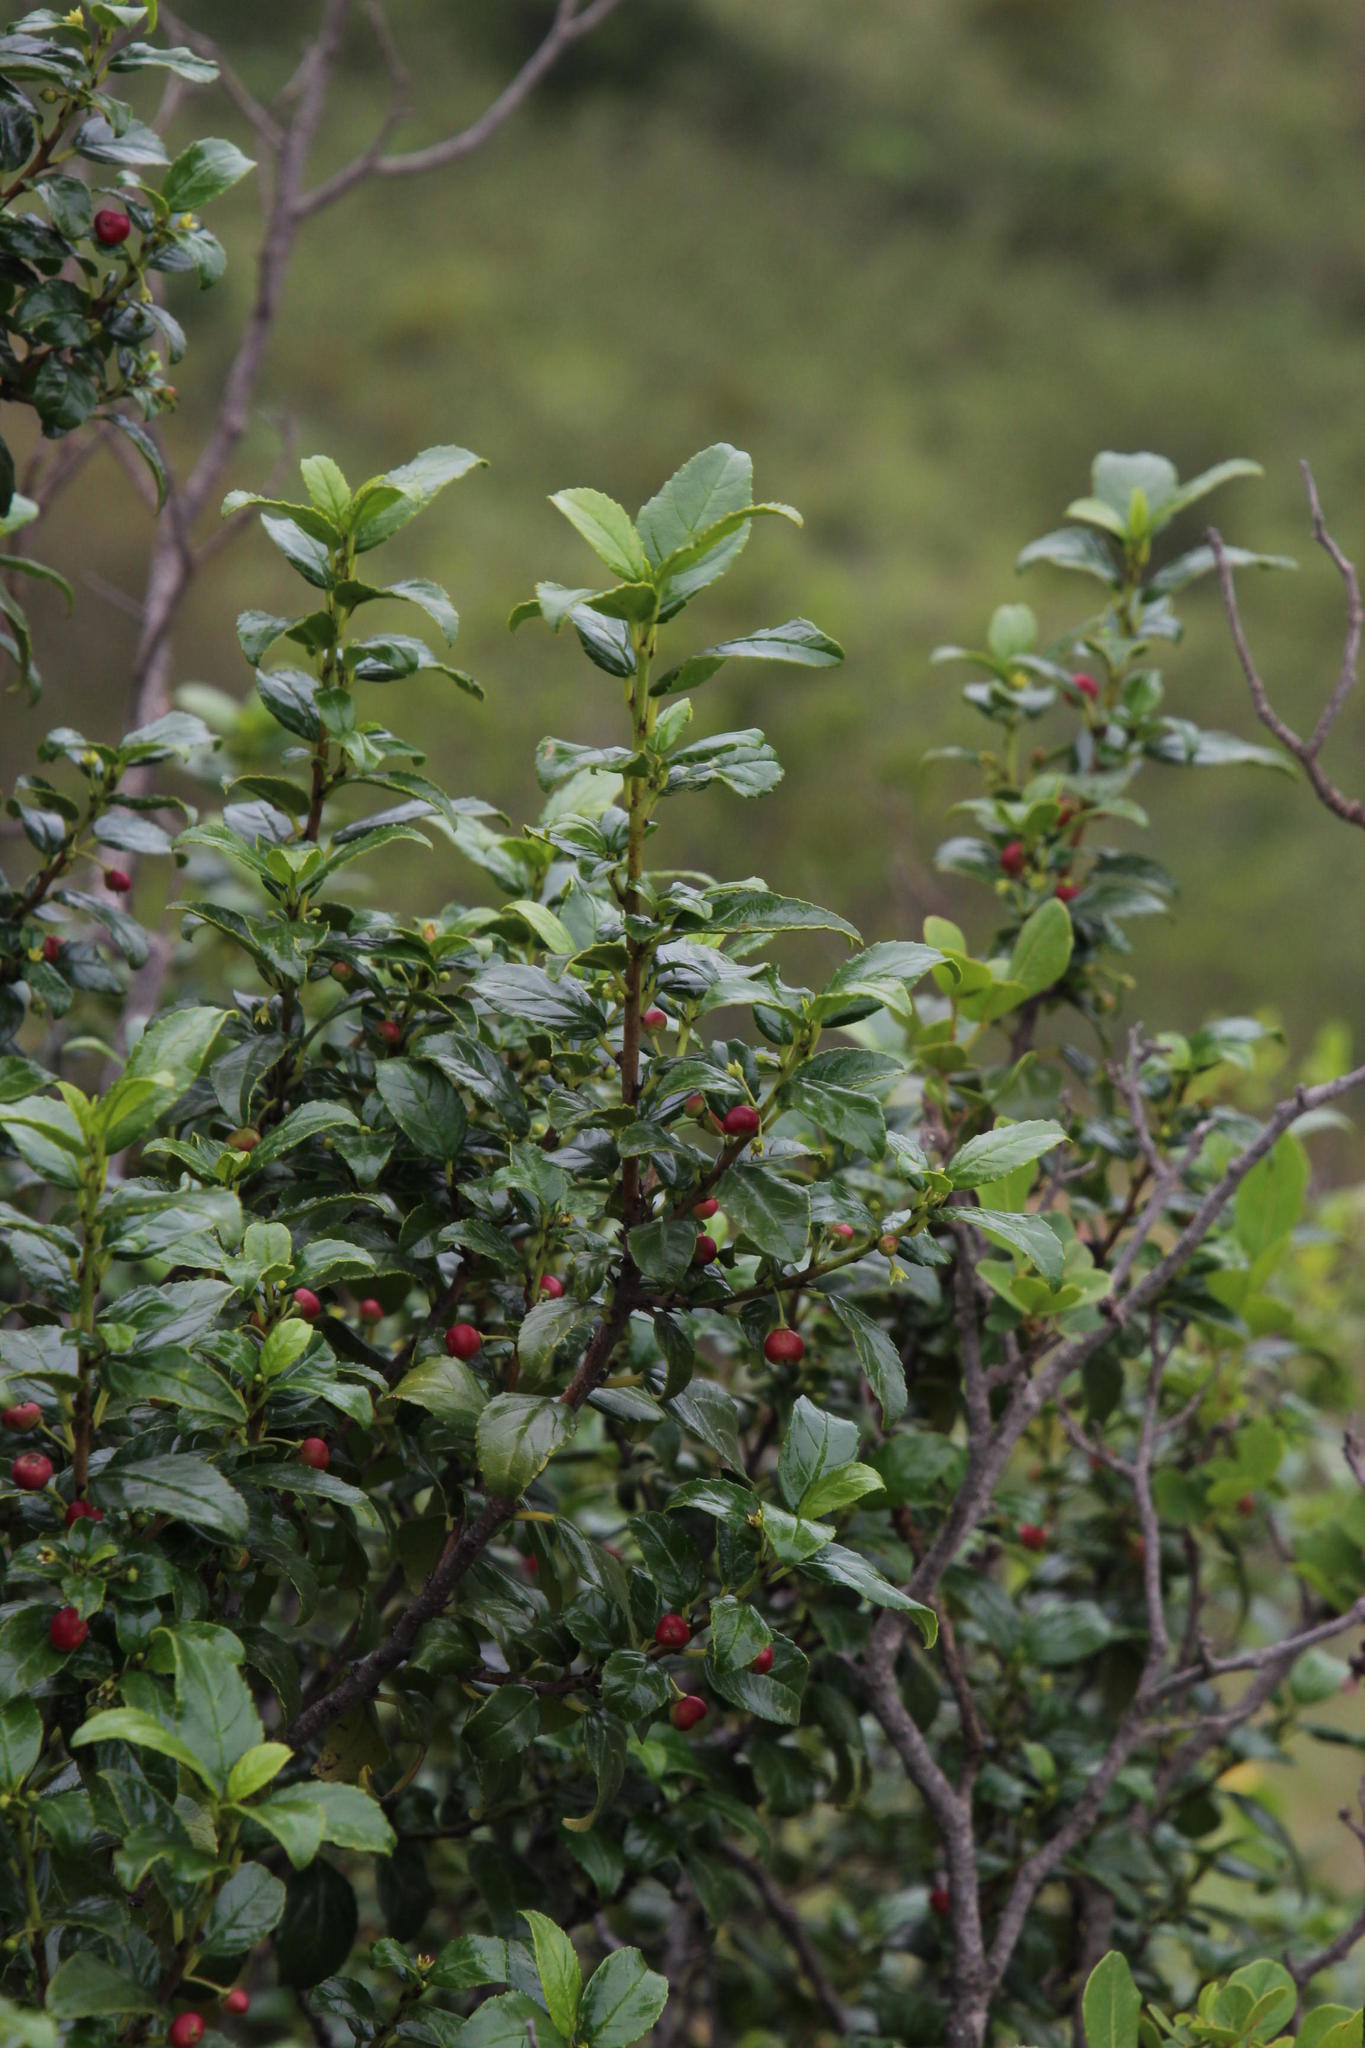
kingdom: Plantae
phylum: Tracheophyta
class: Magnoliopsida
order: Rosales
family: Rhamnaceae
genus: Rhamnus
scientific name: Rhamnus prinoides
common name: Dogwood
